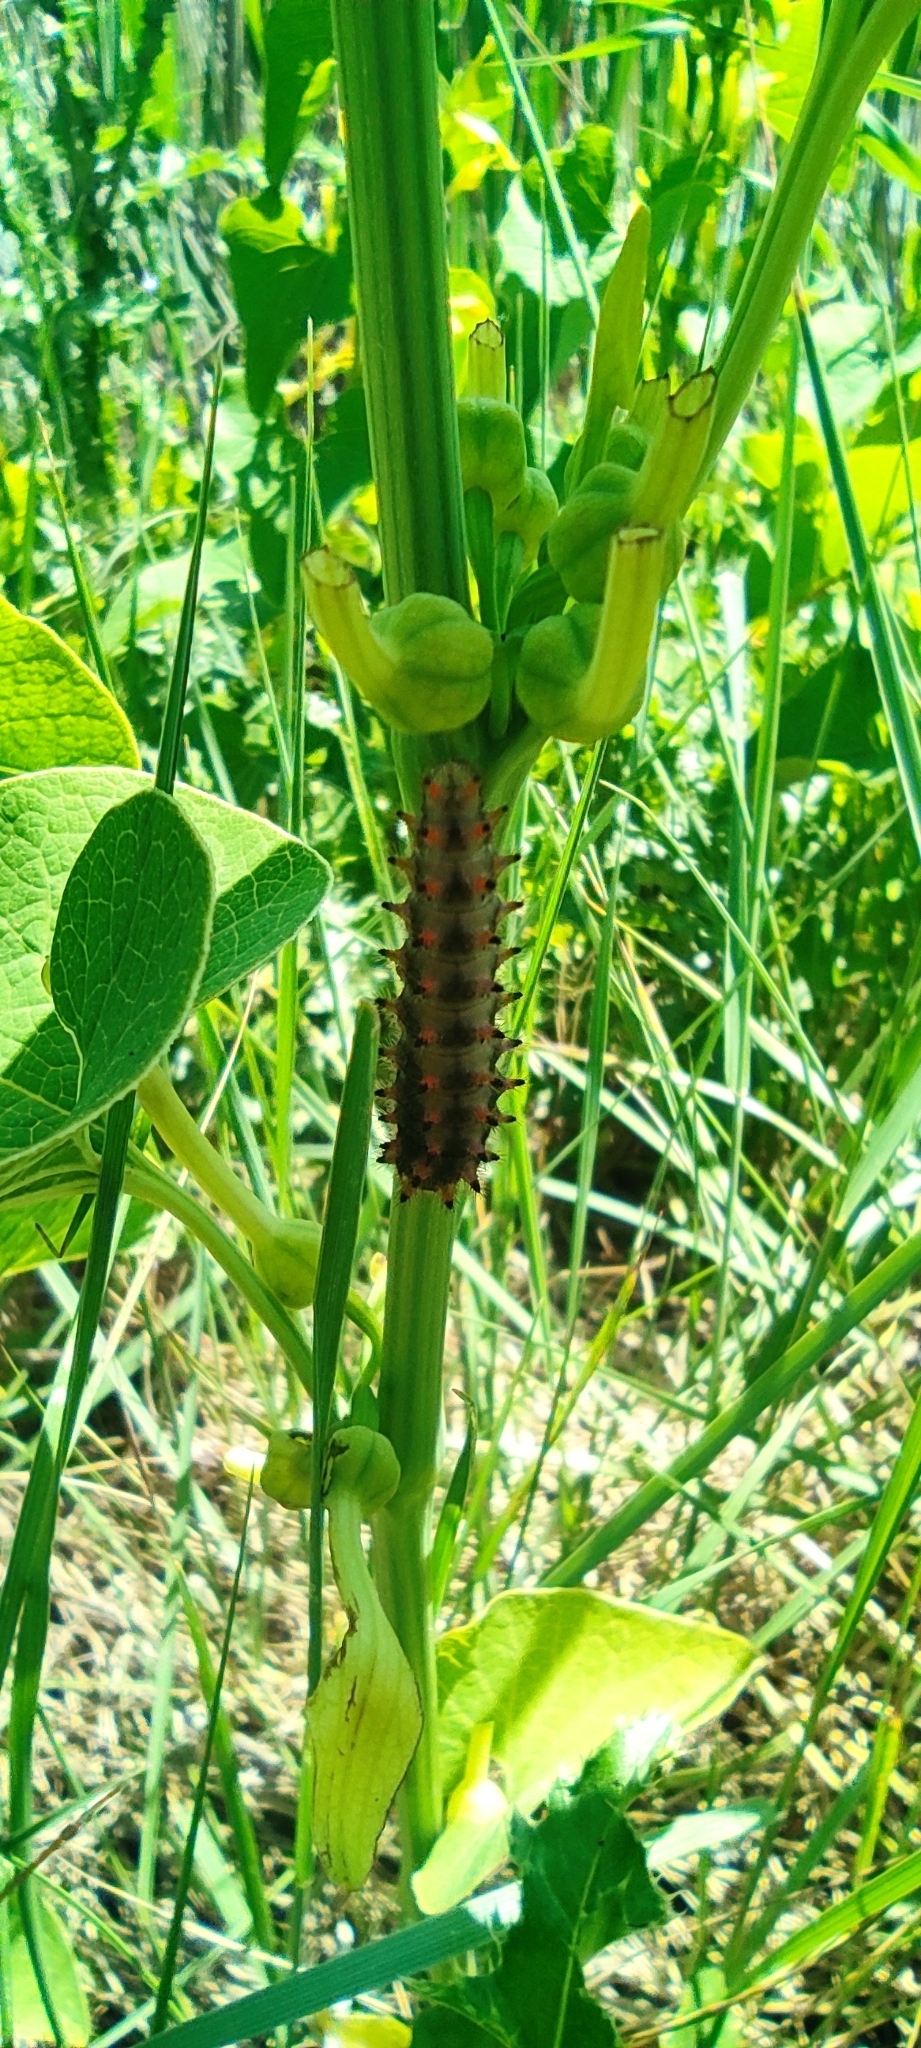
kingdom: Animalia
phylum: Arthropoda
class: Insecta
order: Lepidoptera
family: Papilionidae
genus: Zerynthia
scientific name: Zerynthia polyxena
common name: Southern festoon
